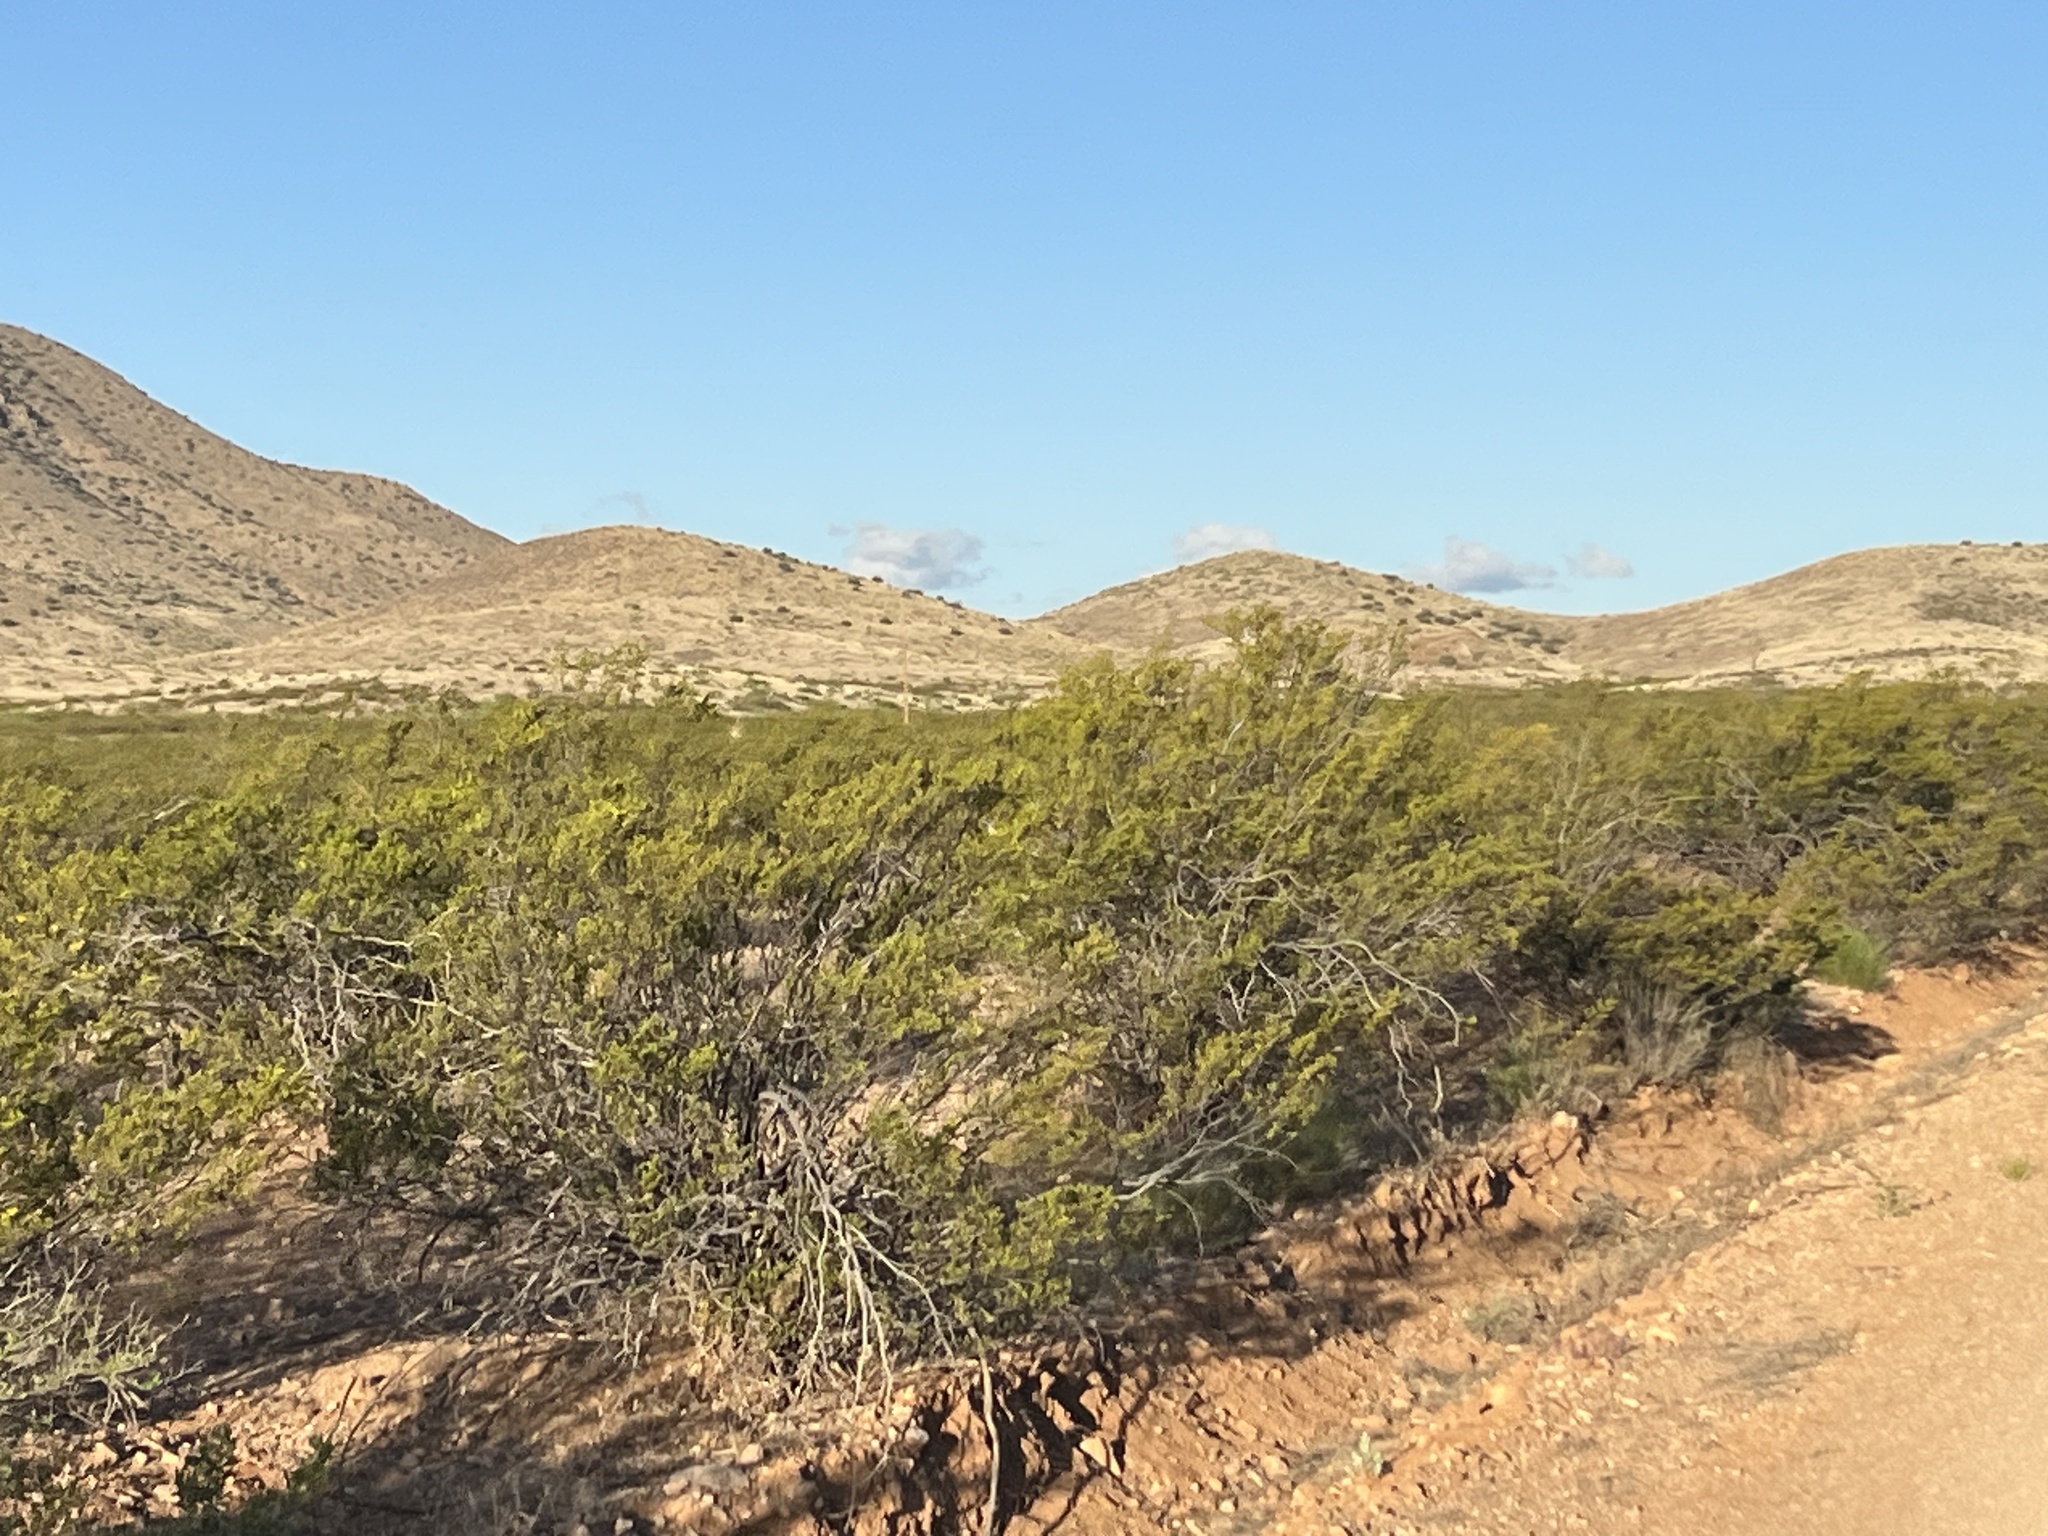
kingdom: Plantae
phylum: Tracheophyta
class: Magnoliopsida
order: Zygophyllales
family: Zygophyllaceae
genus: Larrea
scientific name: Larrea tridentata
